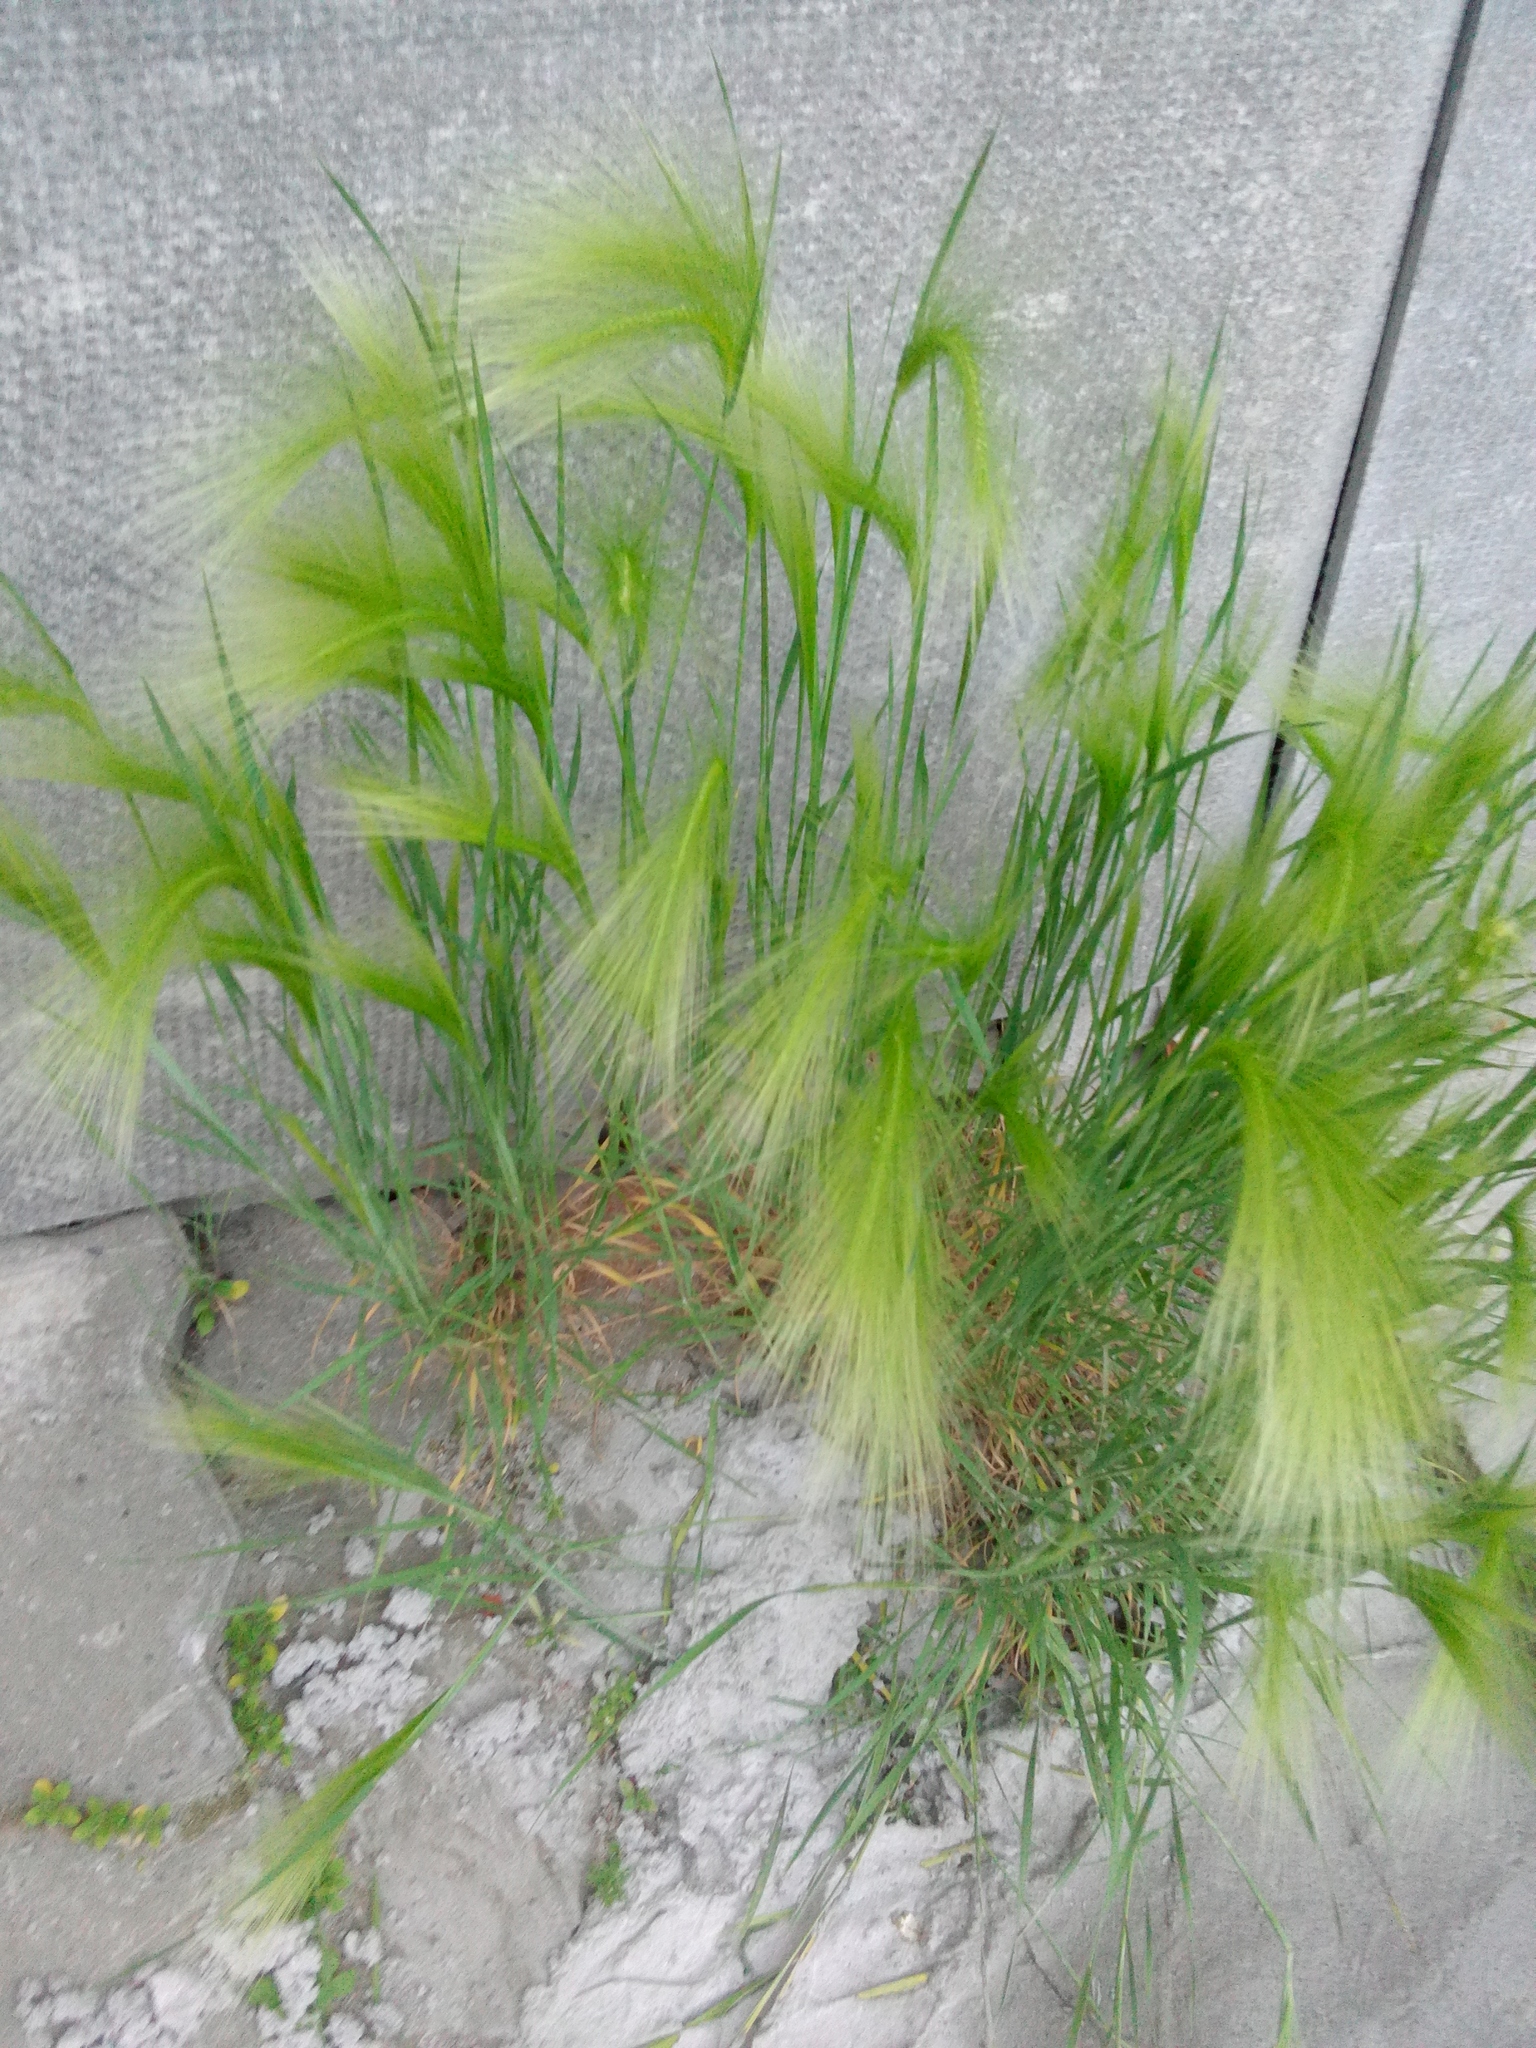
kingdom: Plantae
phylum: Tracheophyta
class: Liliopsida
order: Poales
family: Poaceae
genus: Hordeum
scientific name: Hordeum jubatum
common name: Foxtail barley
